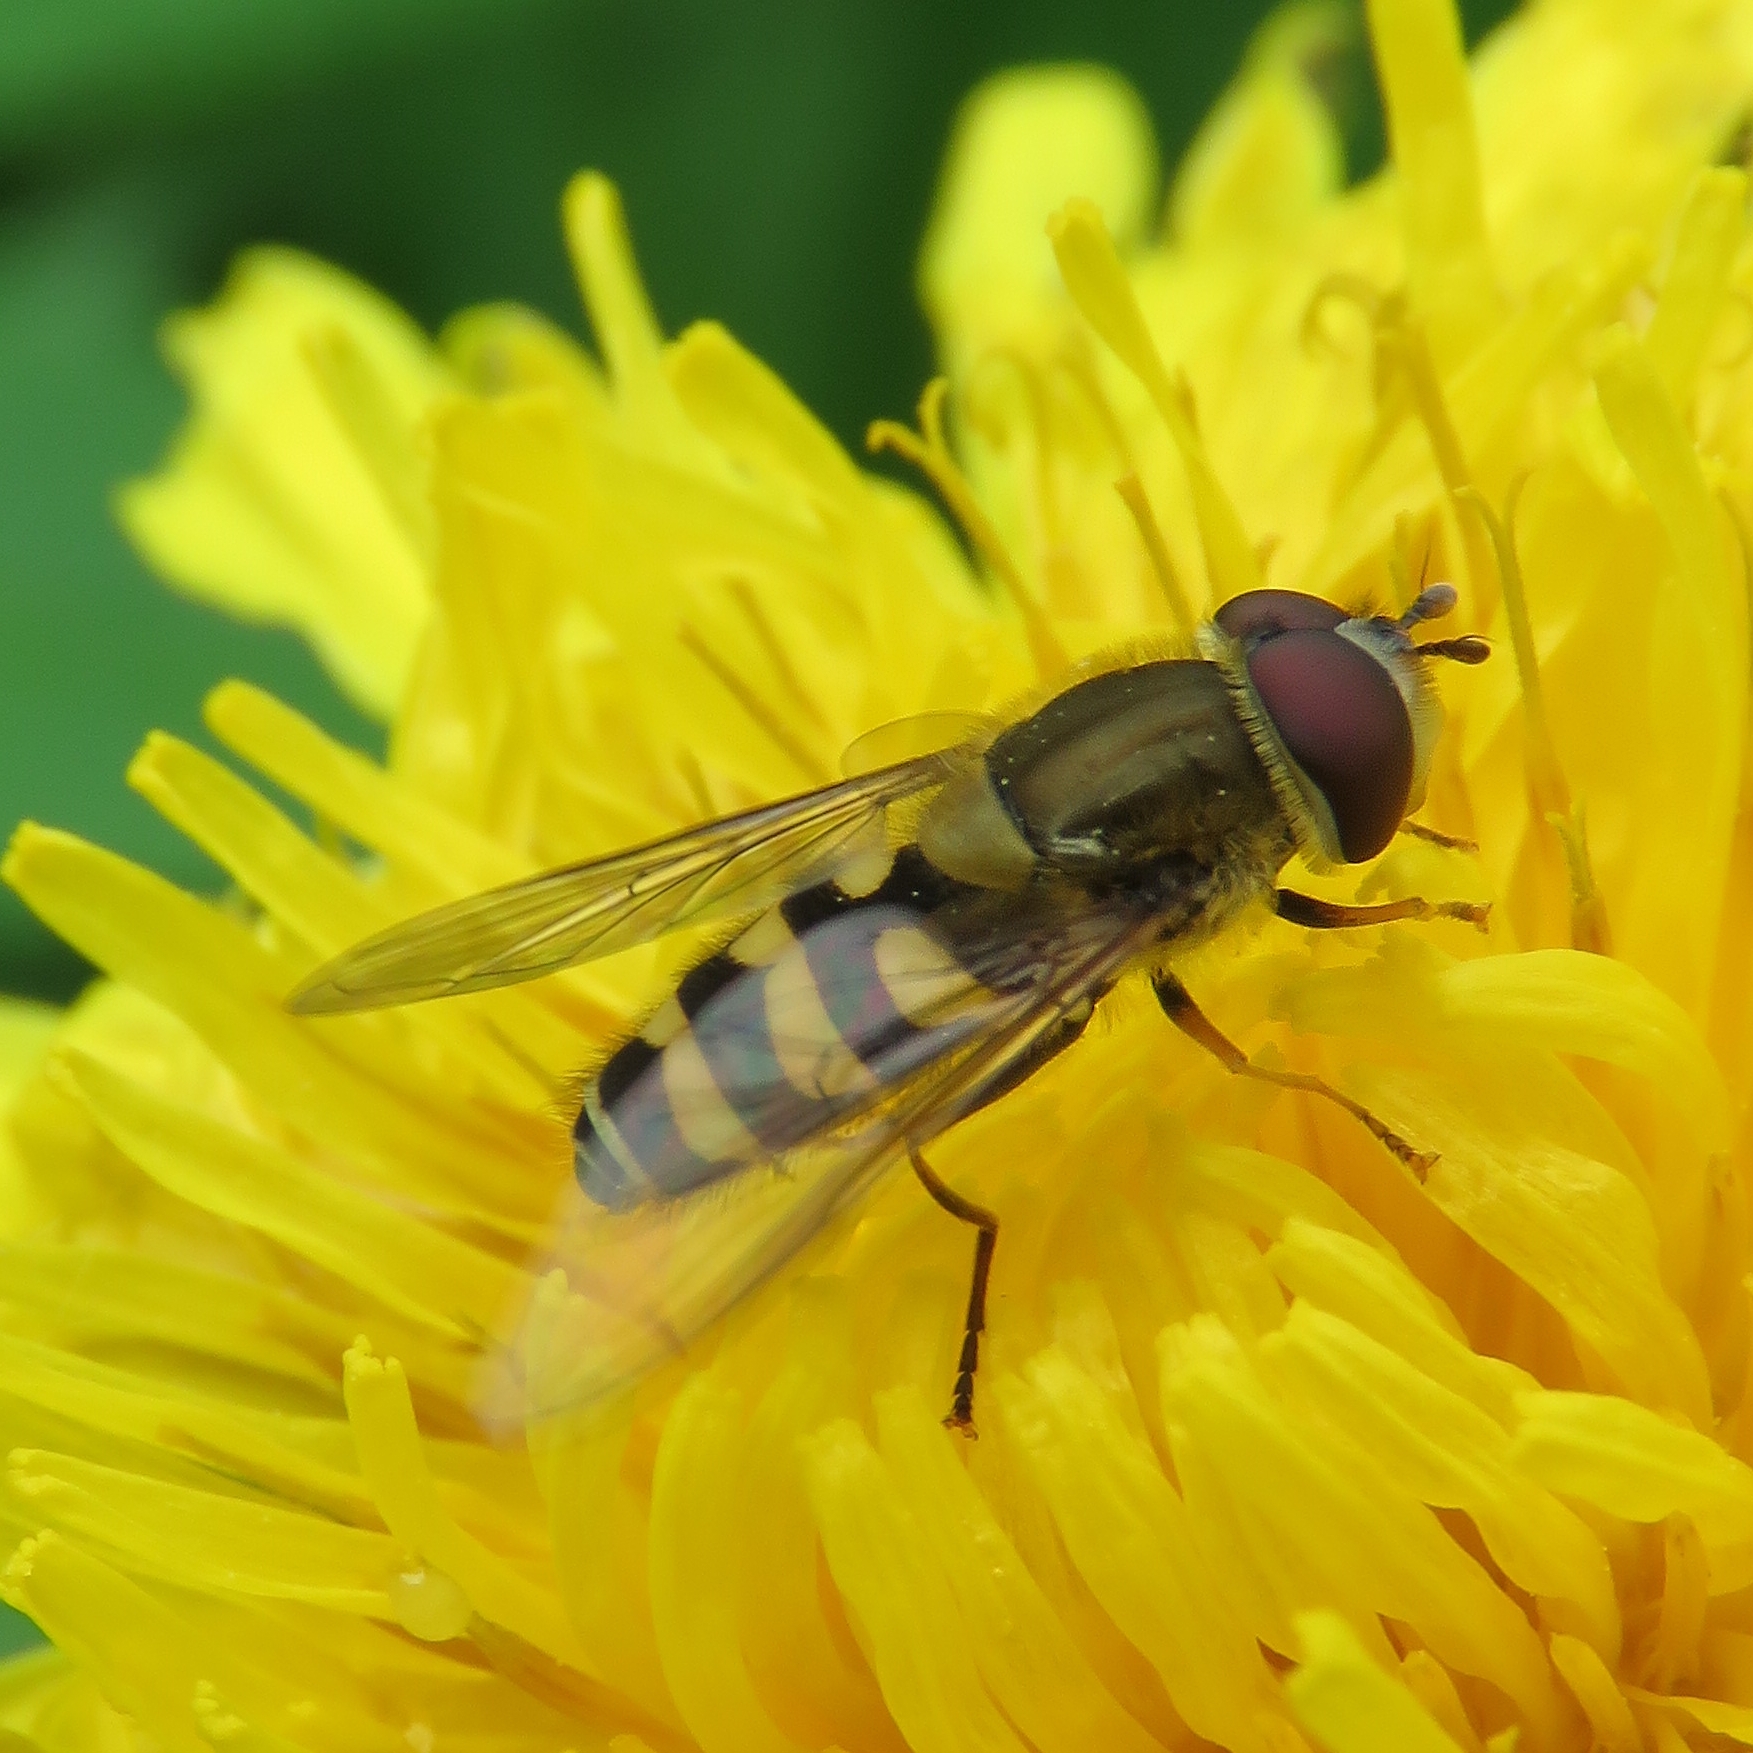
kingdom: Animalia
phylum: Arthropoda
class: Insecta
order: Diptera
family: Syrphidae
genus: Syrphus
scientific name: Syrphus
